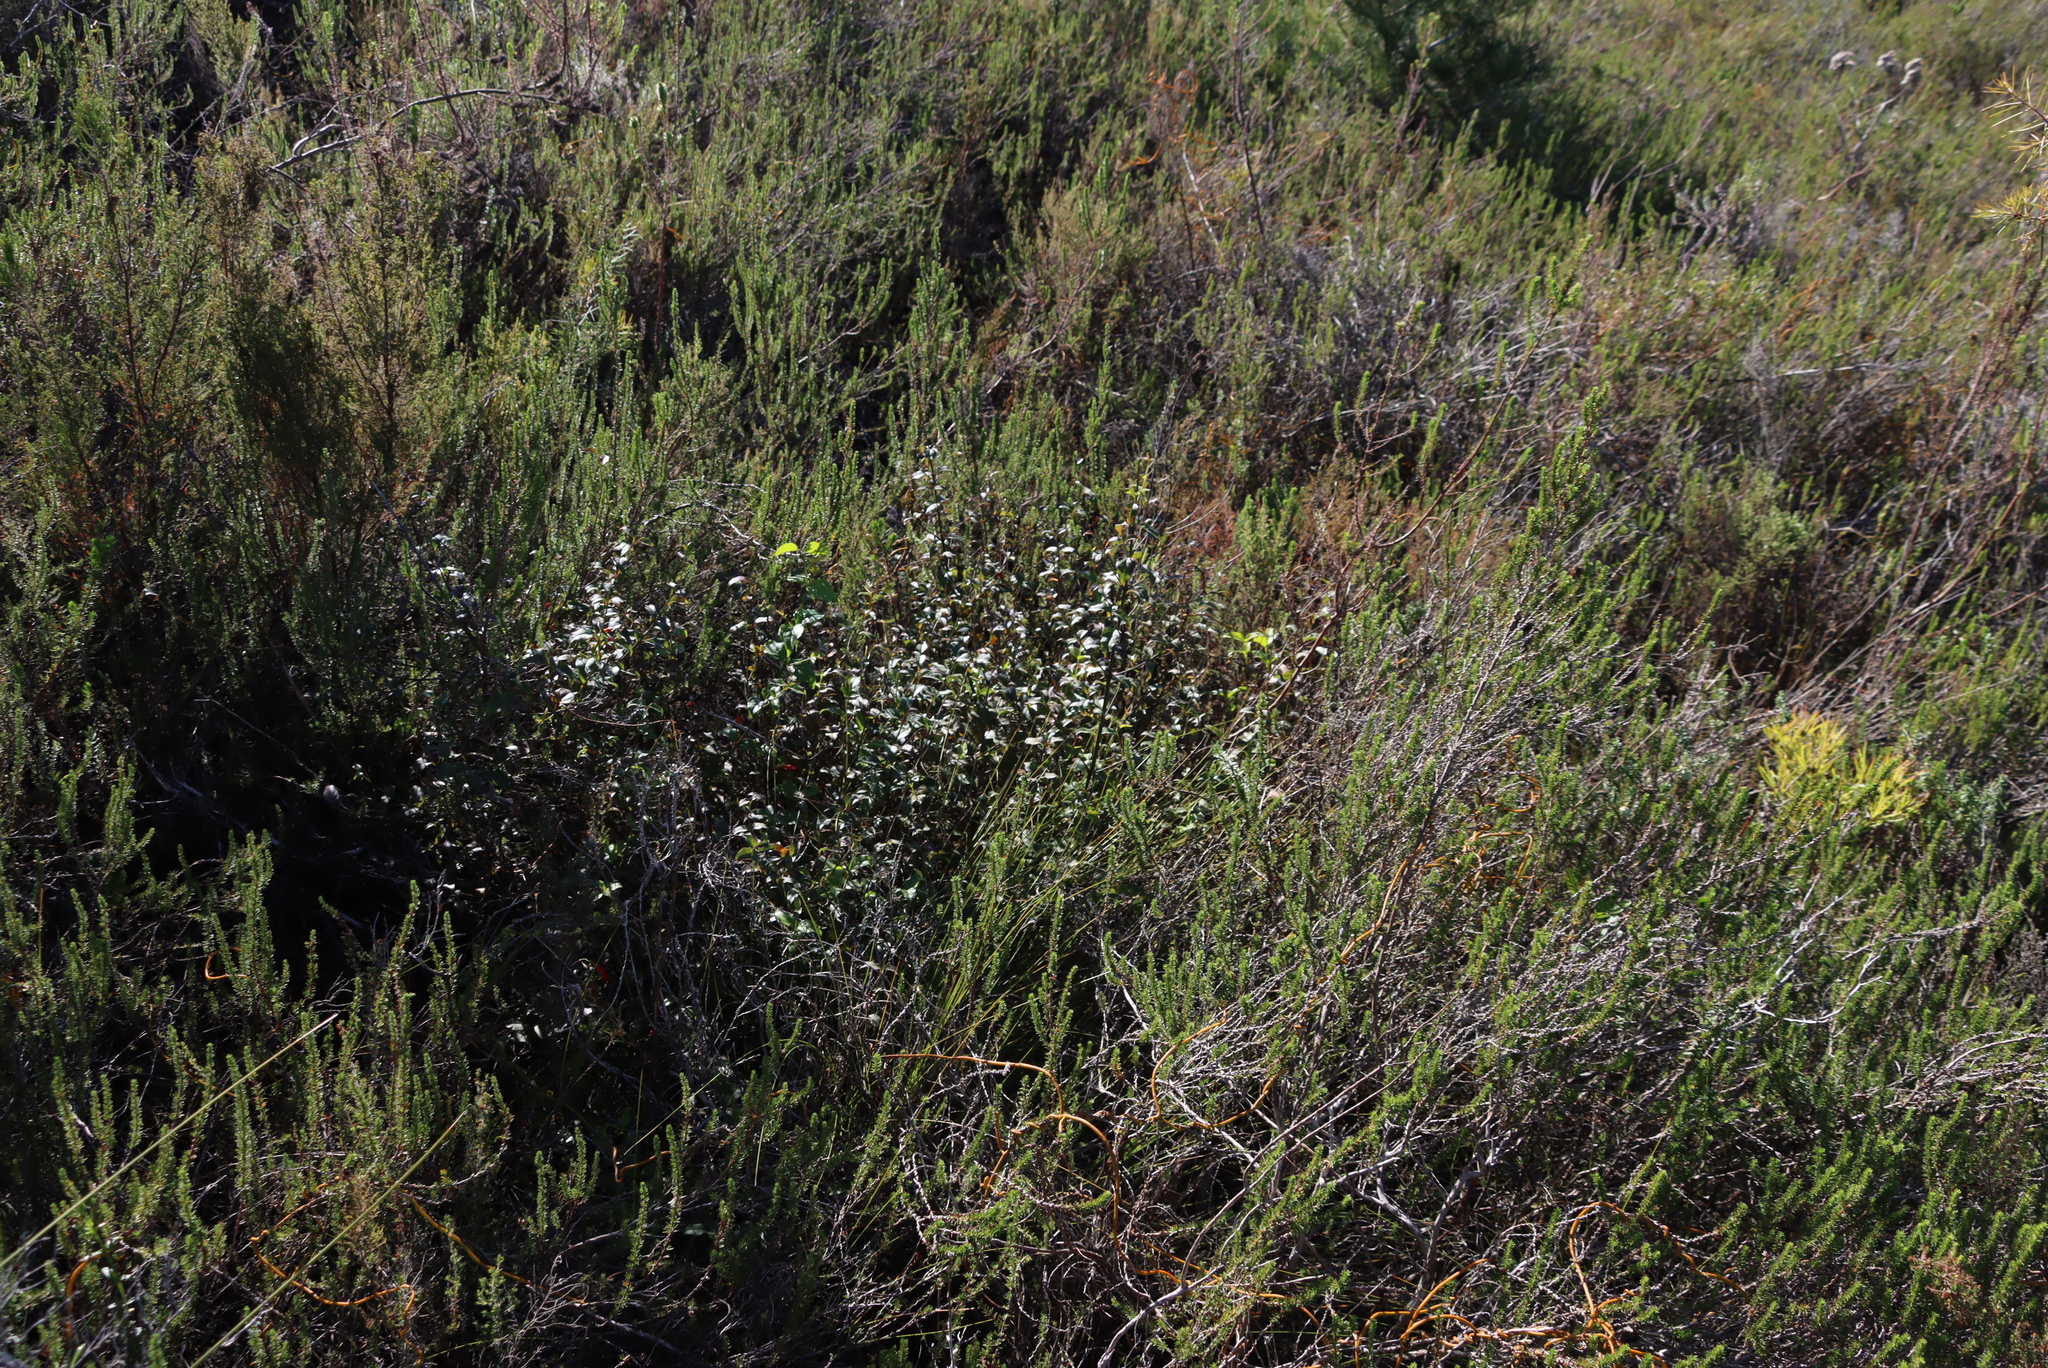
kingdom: Plantae
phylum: Tracheophyta
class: Magnoliopsida
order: Lamiales
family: Stilbaceae
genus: Halleria
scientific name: Halleria lucida
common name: Tree fuschia
